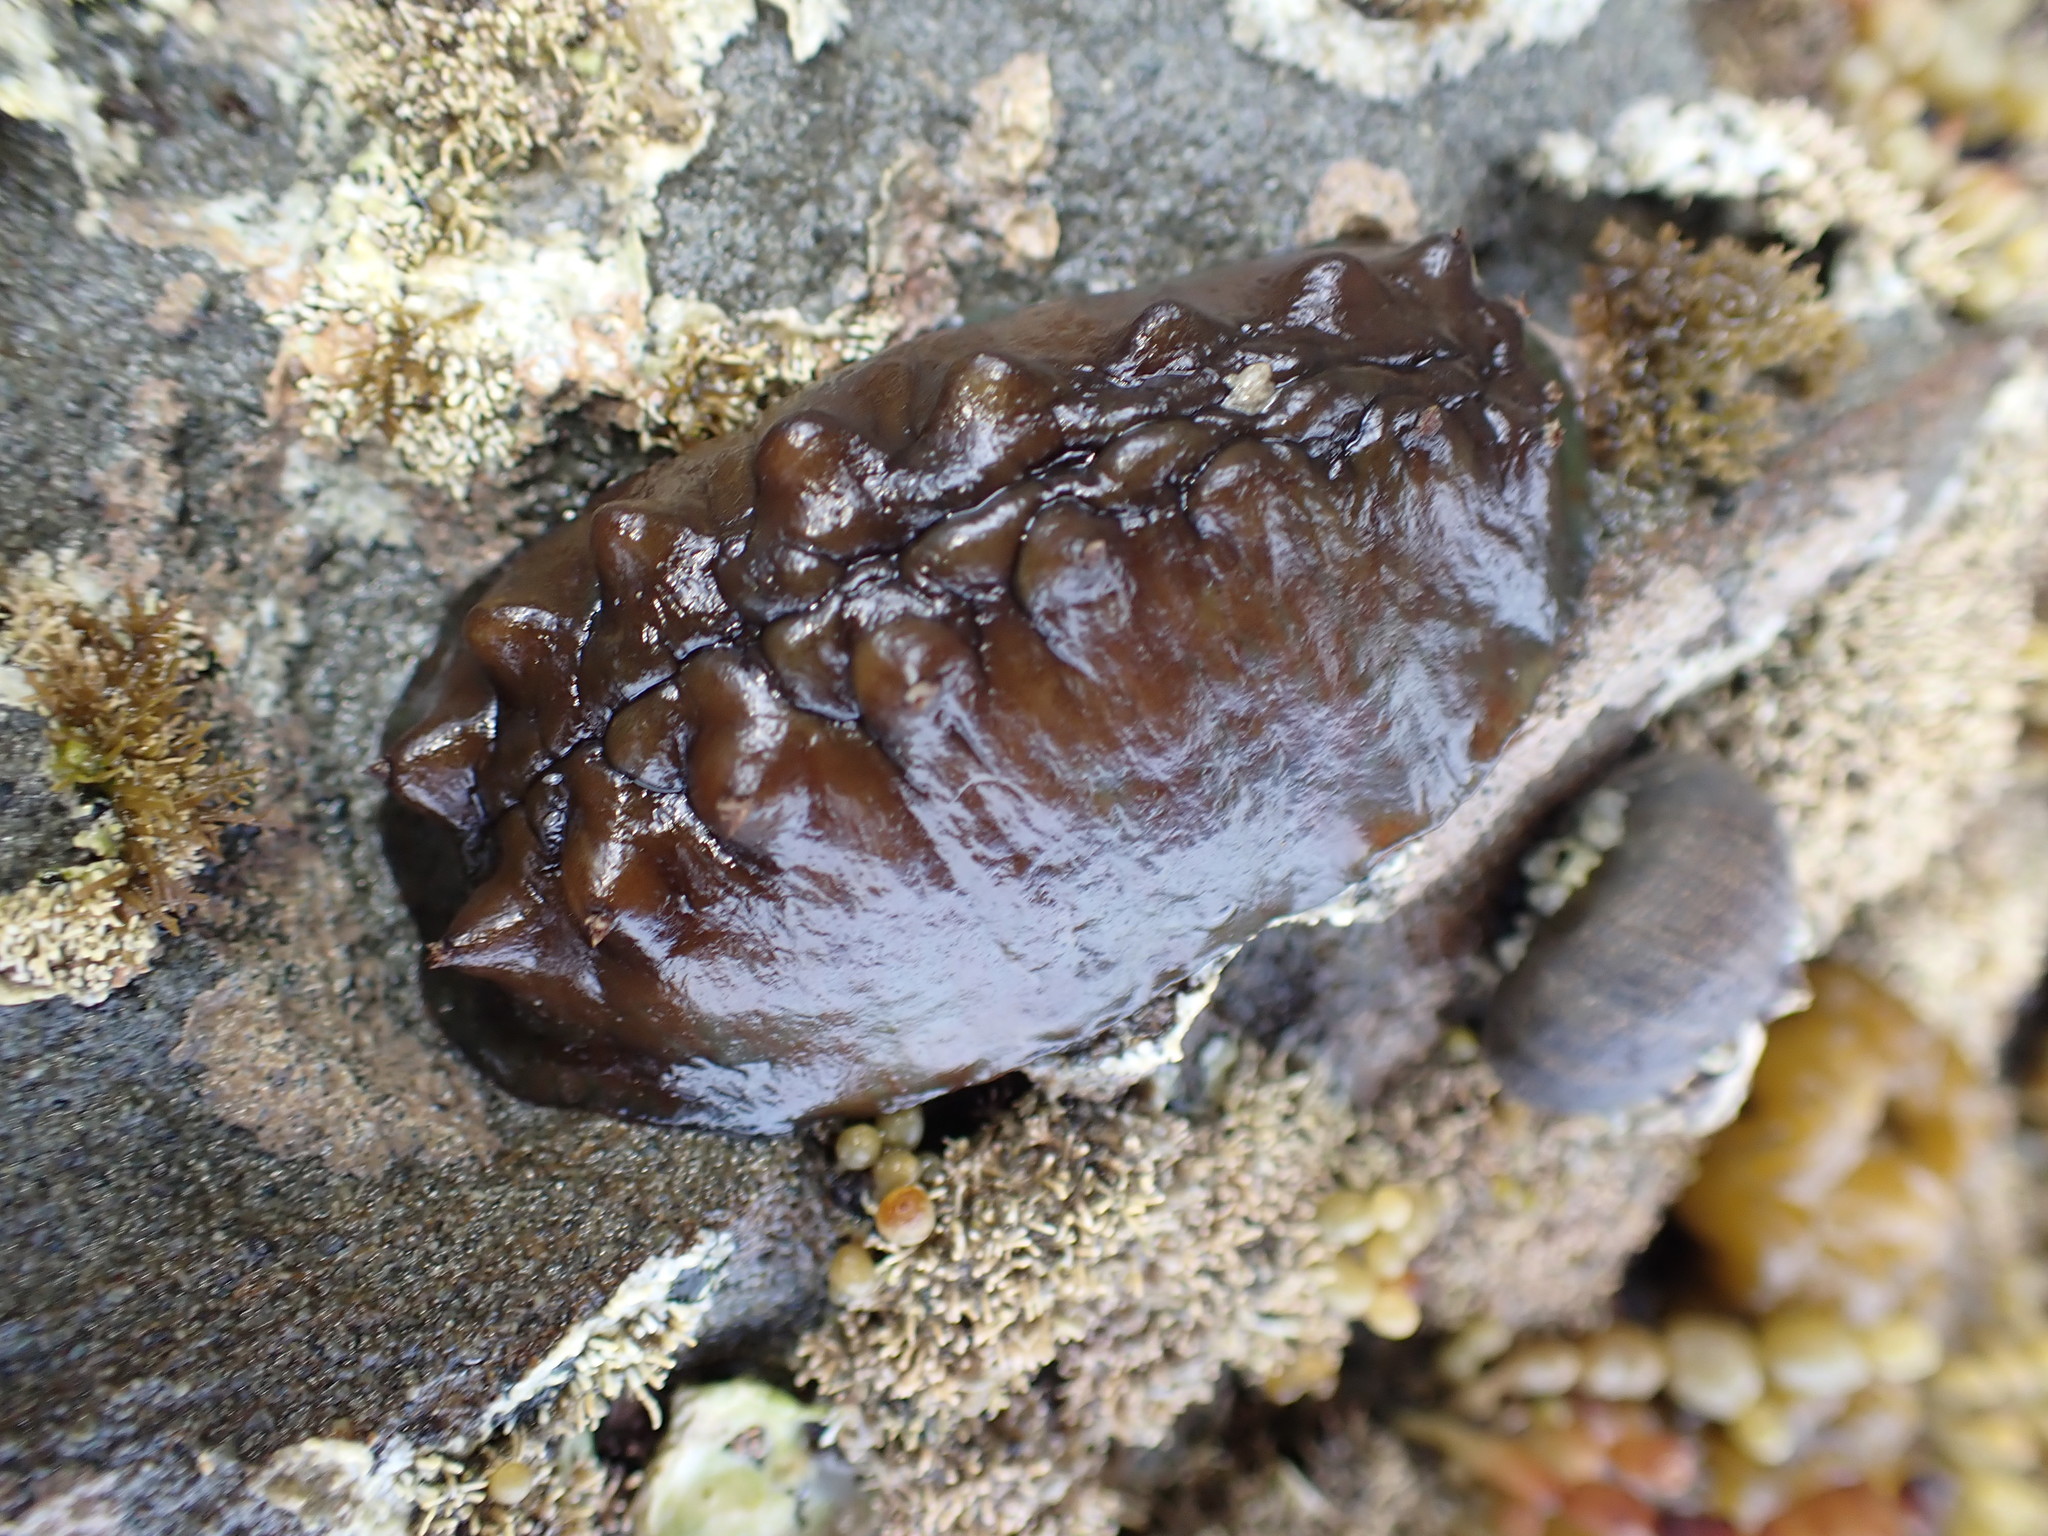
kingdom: Animalia
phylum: Mollusca
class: Polyplacophora
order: Chitonida
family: Acanthochitonidae
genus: Cryptoconchus
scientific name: Cryptoconchus porosus
